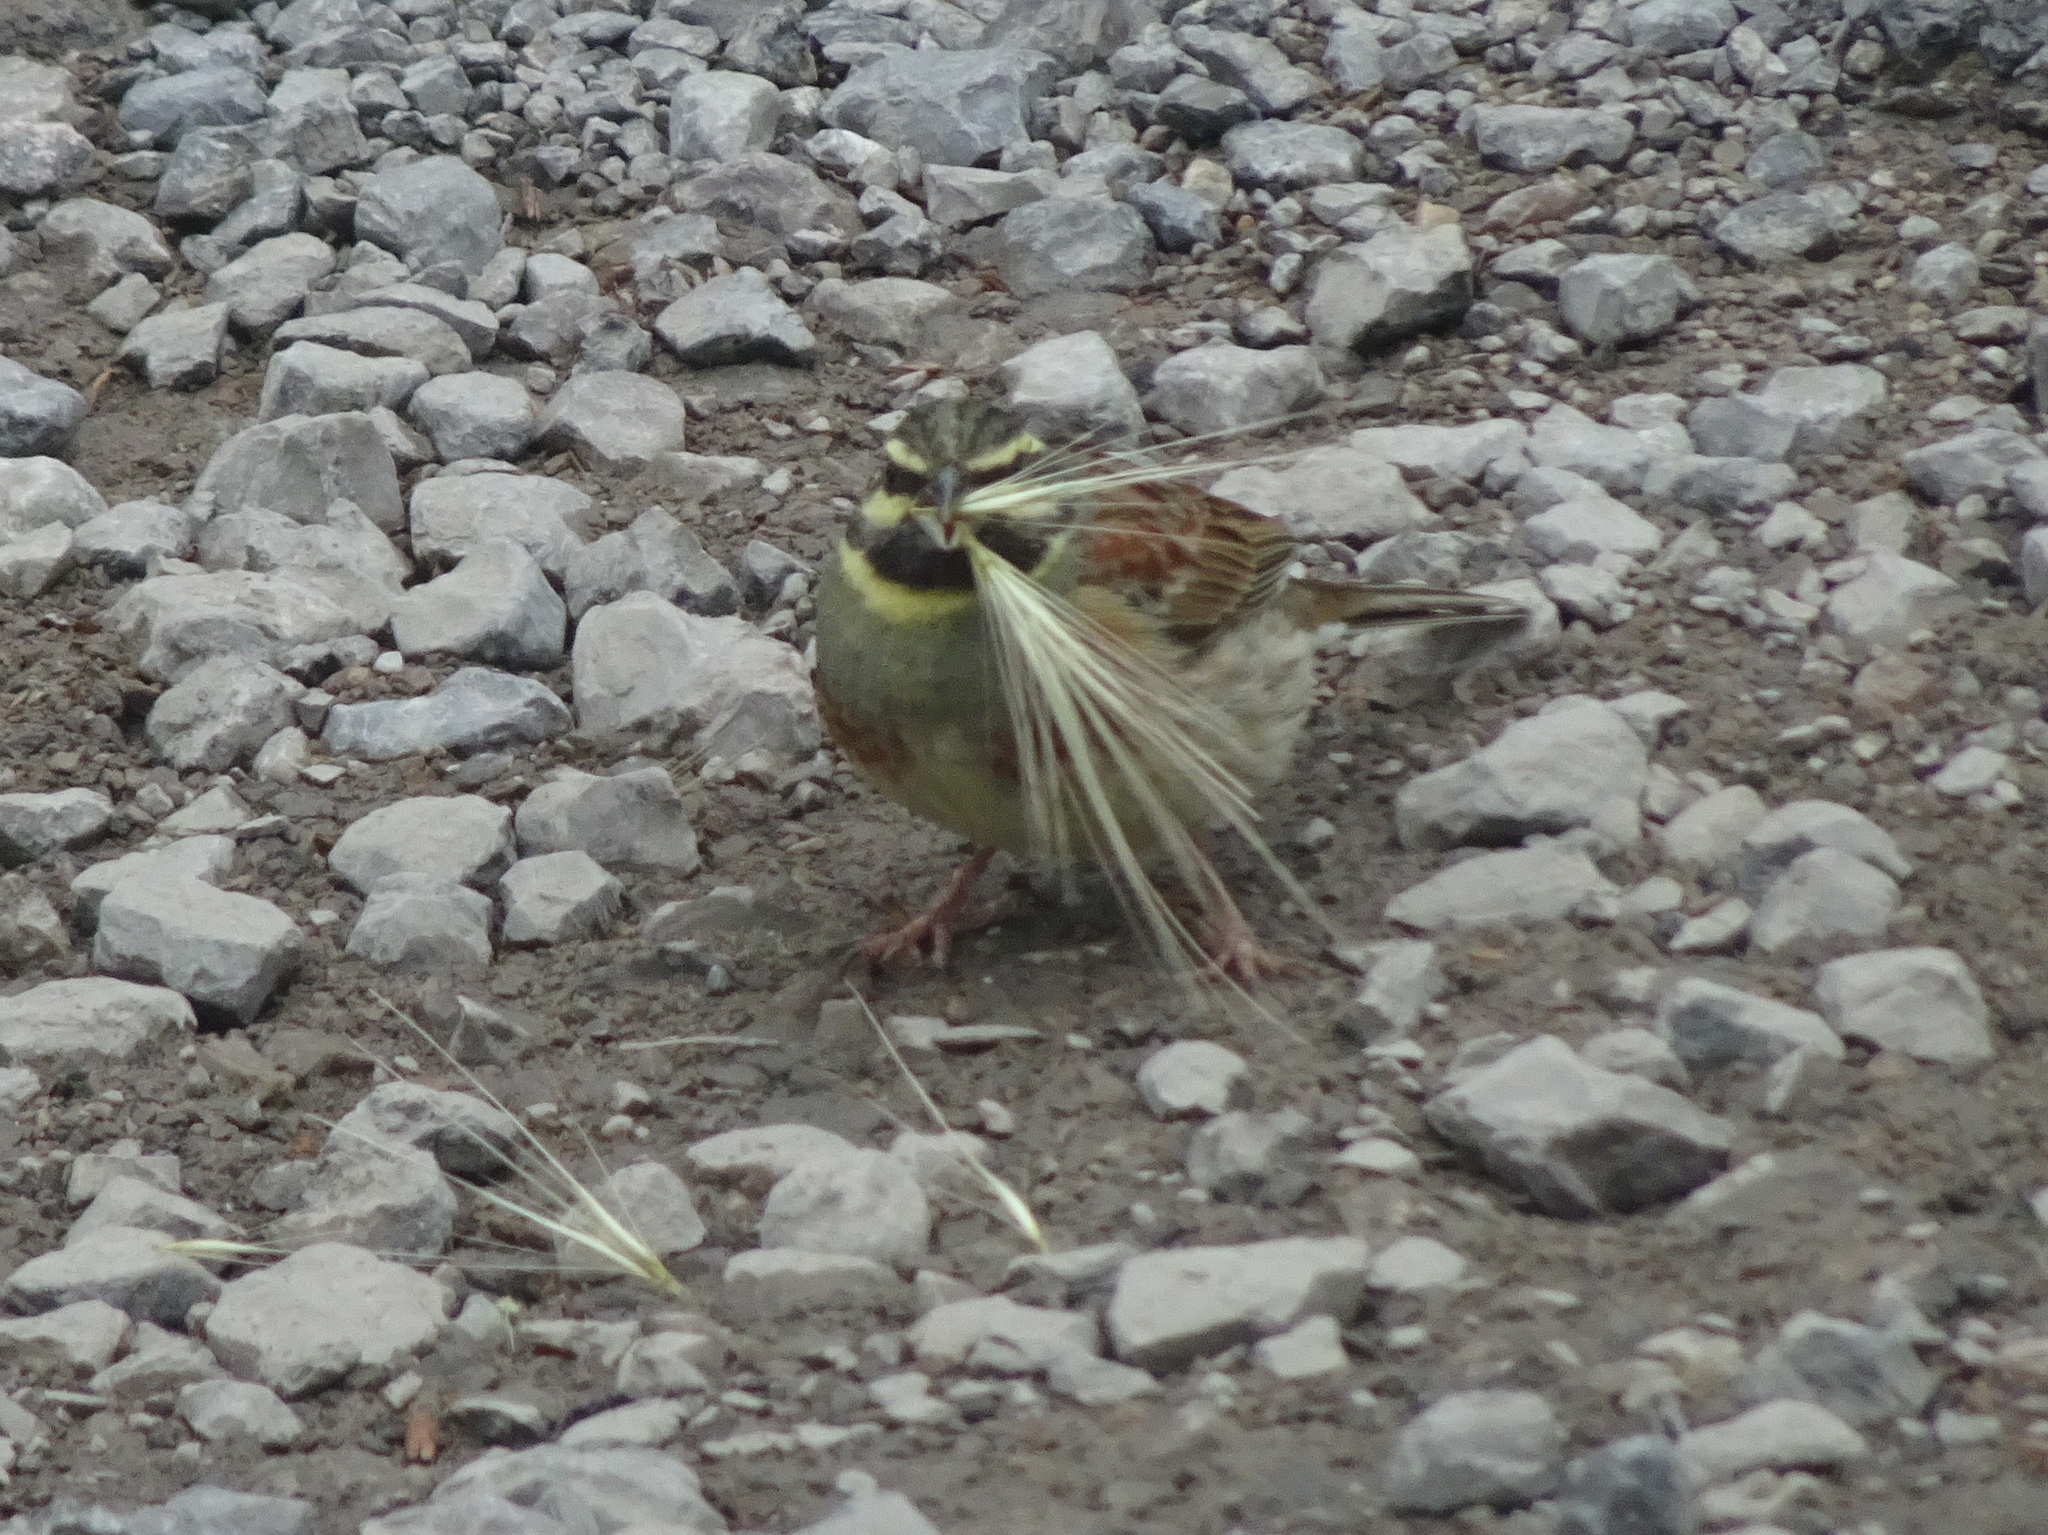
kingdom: Animalia
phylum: Chordata
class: Aves
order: Passeriformes
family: Emberizidae
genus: Emberiza
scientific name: Emberiza cirlus
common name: Cirl bunting
